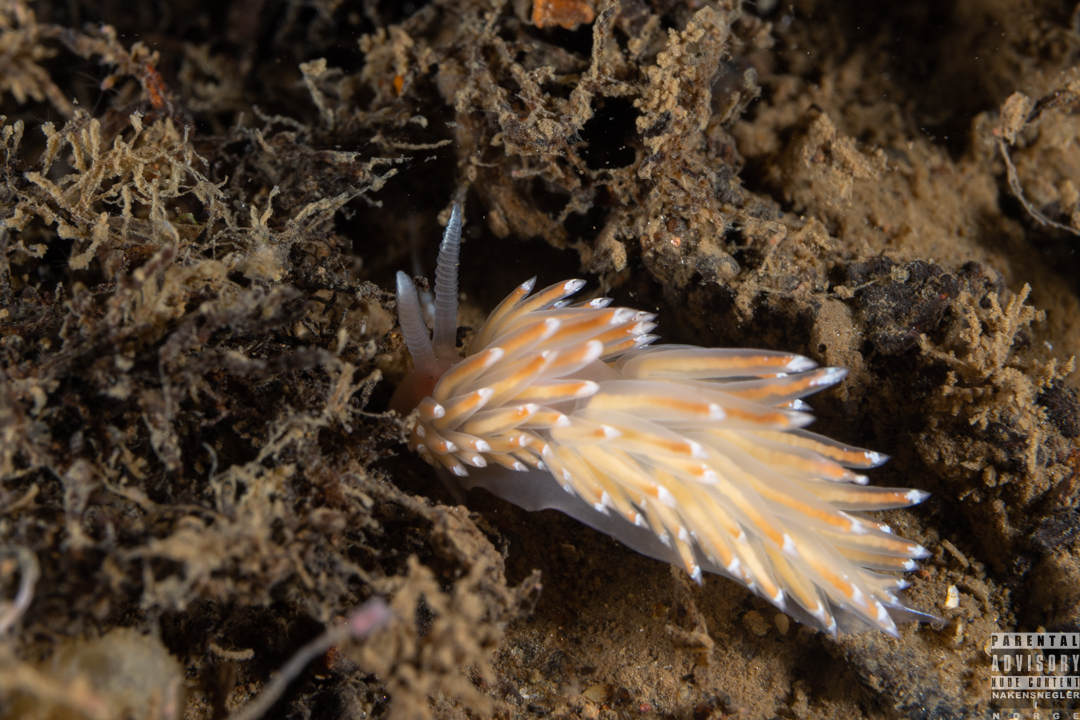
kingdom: Animalia
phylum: Mollusca
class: Gastropoda
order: Nudibranchia
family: Facelinidae
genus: Facelina
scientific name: Facelina bostoniensis
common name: Boston facelina
